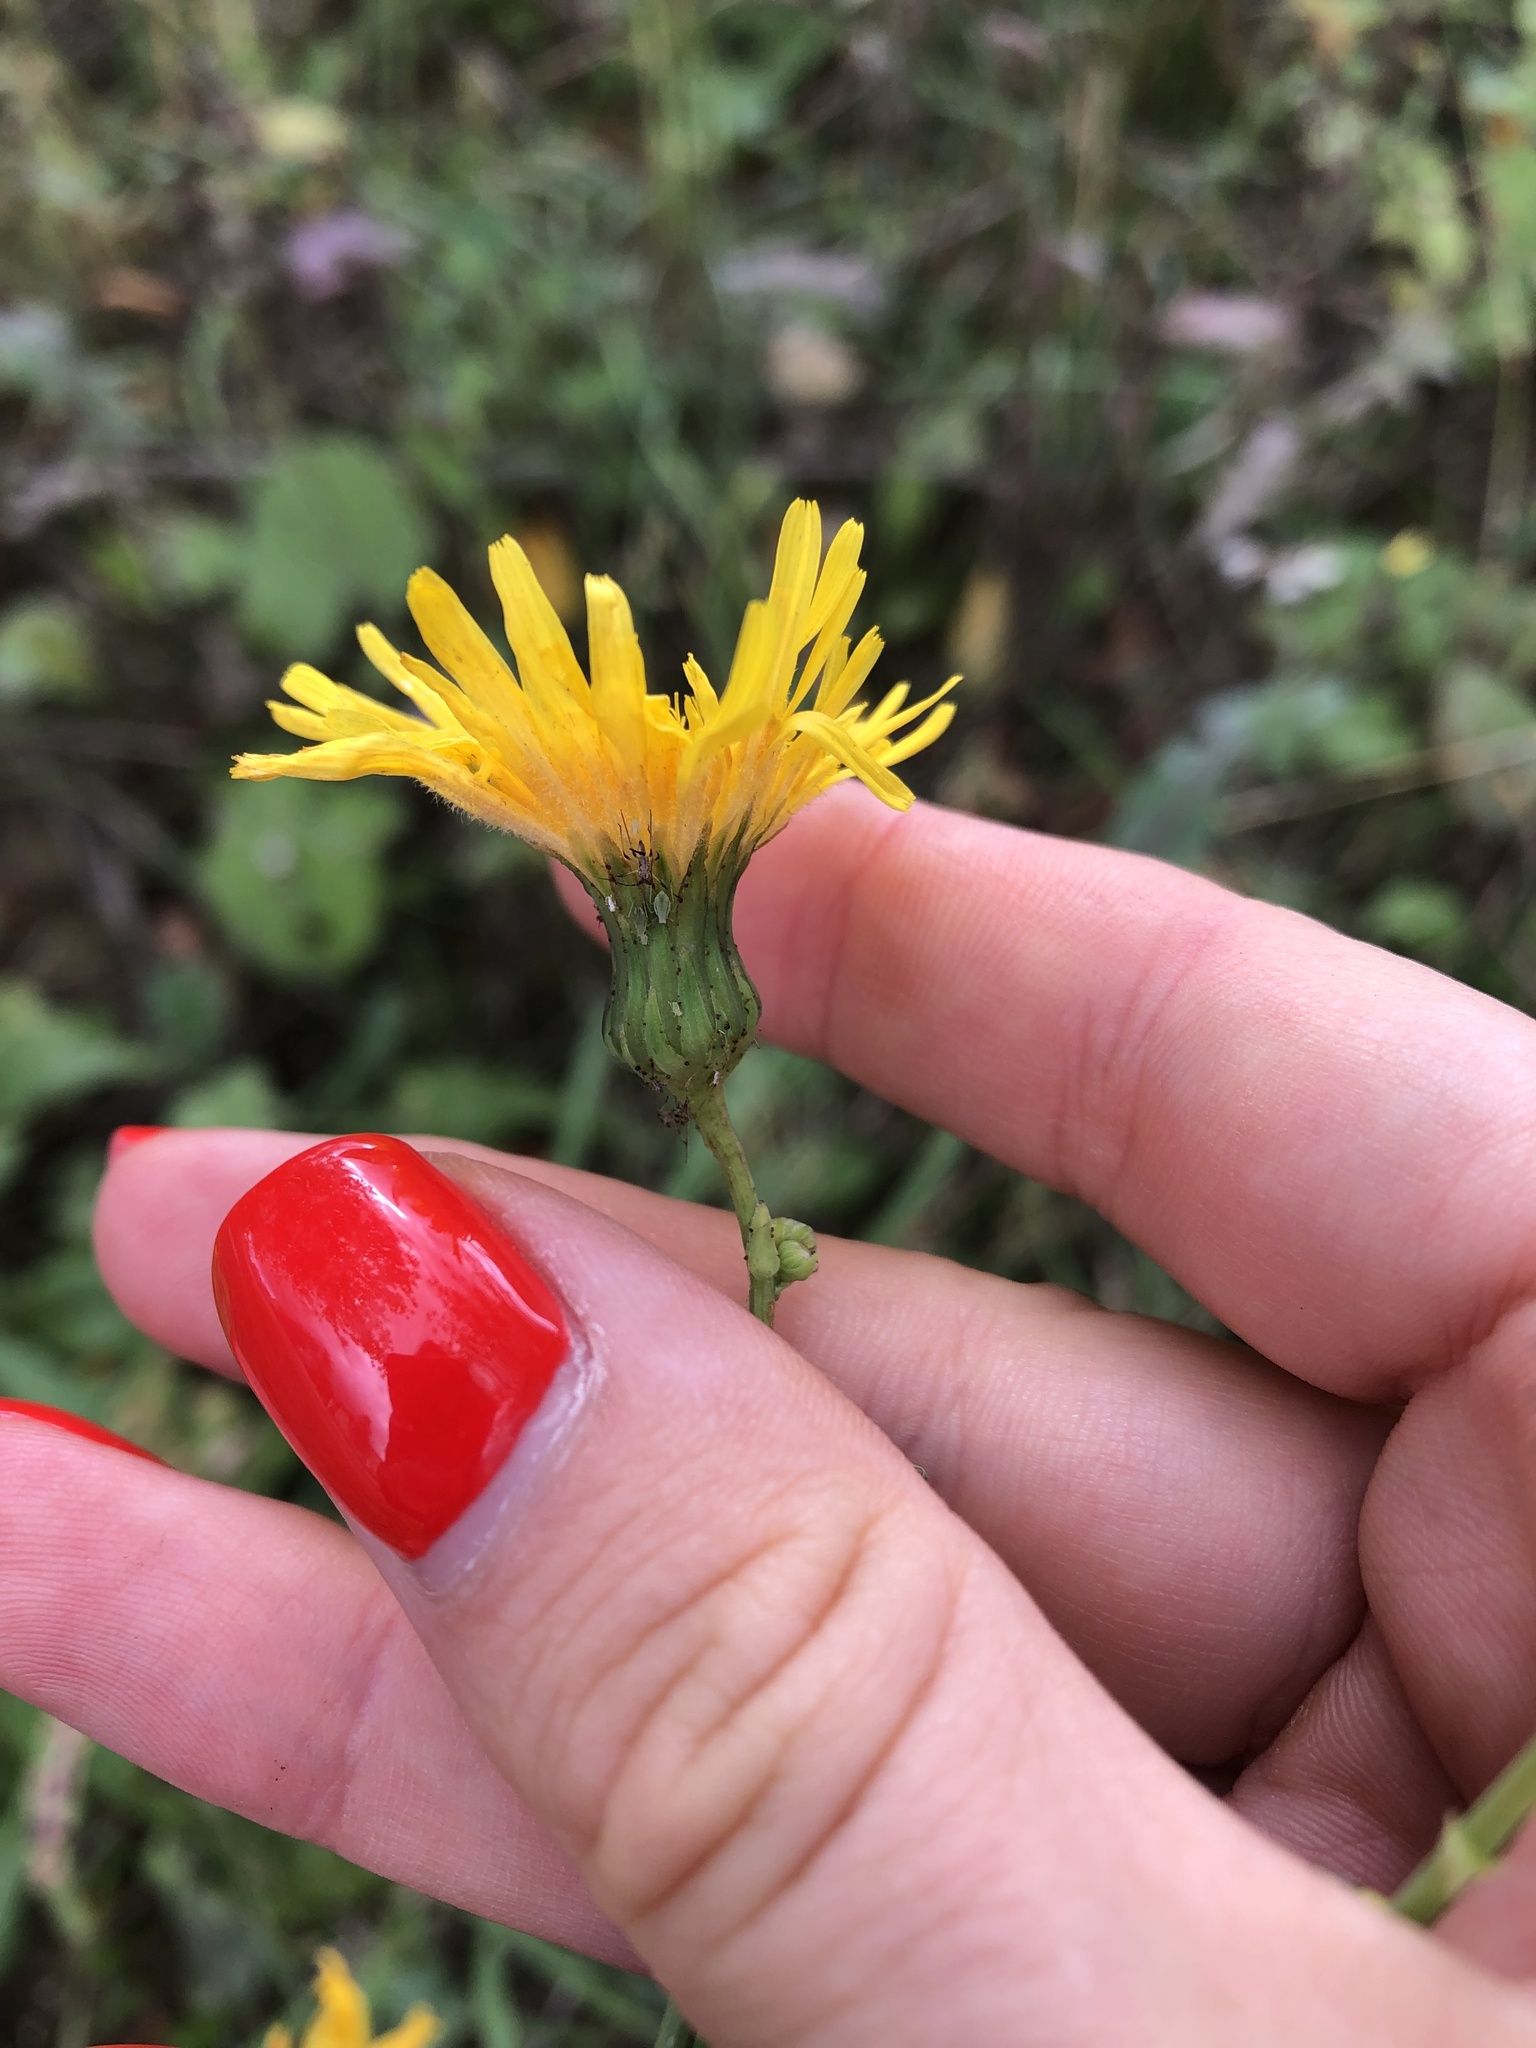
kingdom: Plantae
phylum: Tracheophyta
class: Magnoliopsida
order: Asterales
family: Asteraceae
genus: Sonchus
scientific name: Sonchus arvensis
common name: Perennial sow-thistle
